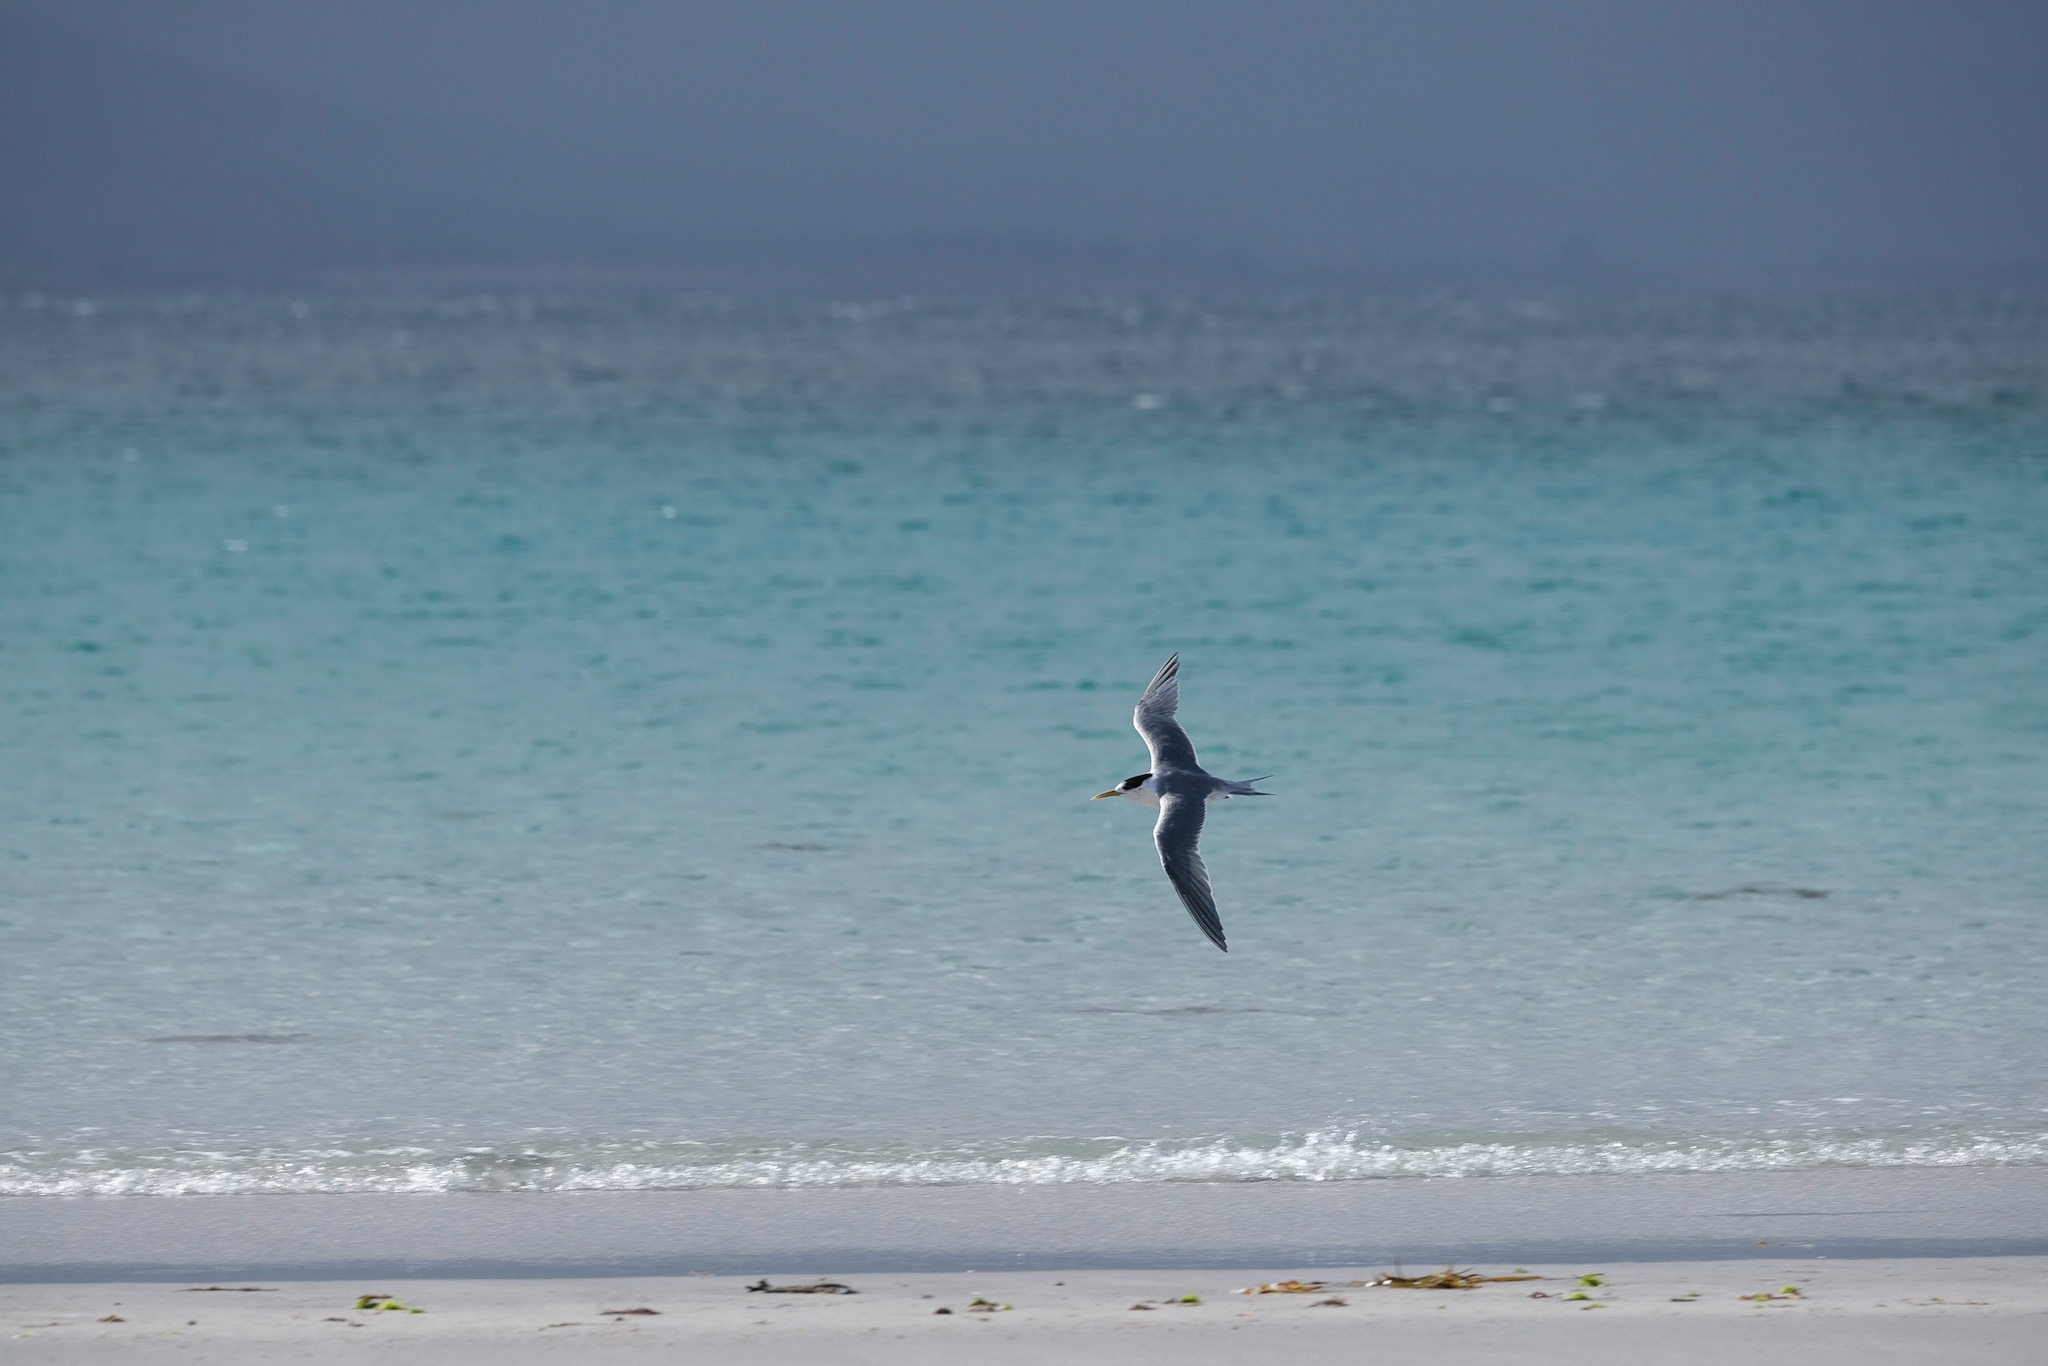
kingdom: Animalia
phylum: Chordata
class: Aves
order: Charadriiformes
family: Laridae
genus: Thalasseus
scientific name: Thalasseus bergii
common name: Greater crested tern
